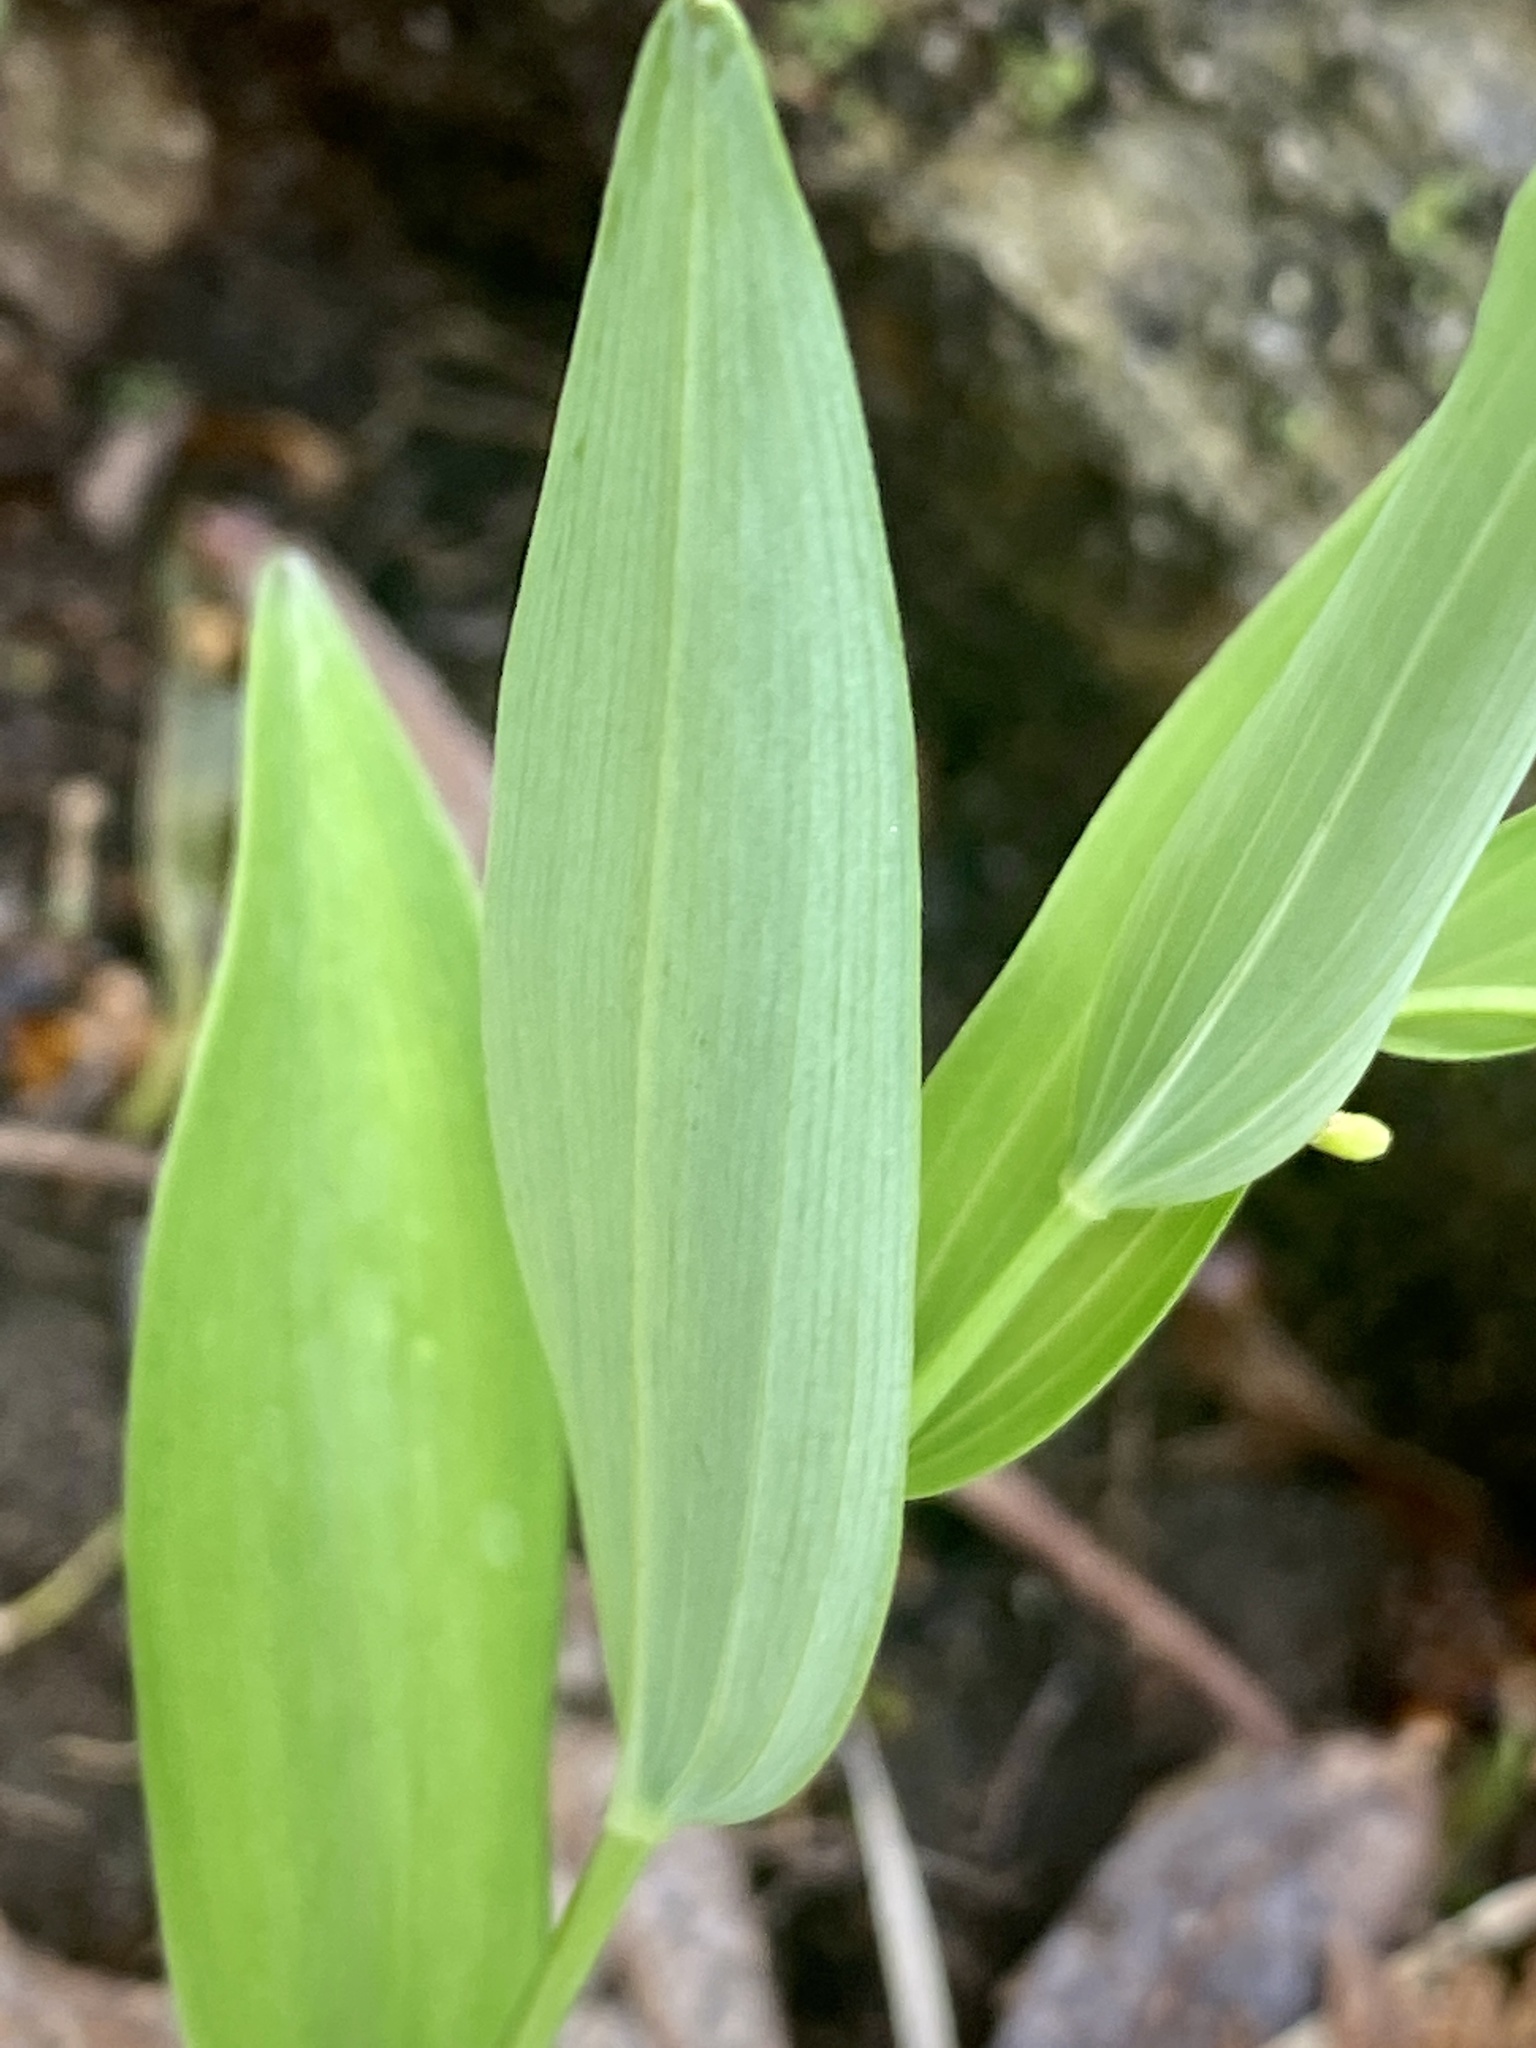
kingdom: Plantae
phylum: Tracheophyta
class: Liliopsida
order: Asparagales
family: Asparagaceae
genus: Polygonatum
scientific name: Polygonatum biflorum
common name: American solomon's-seal
